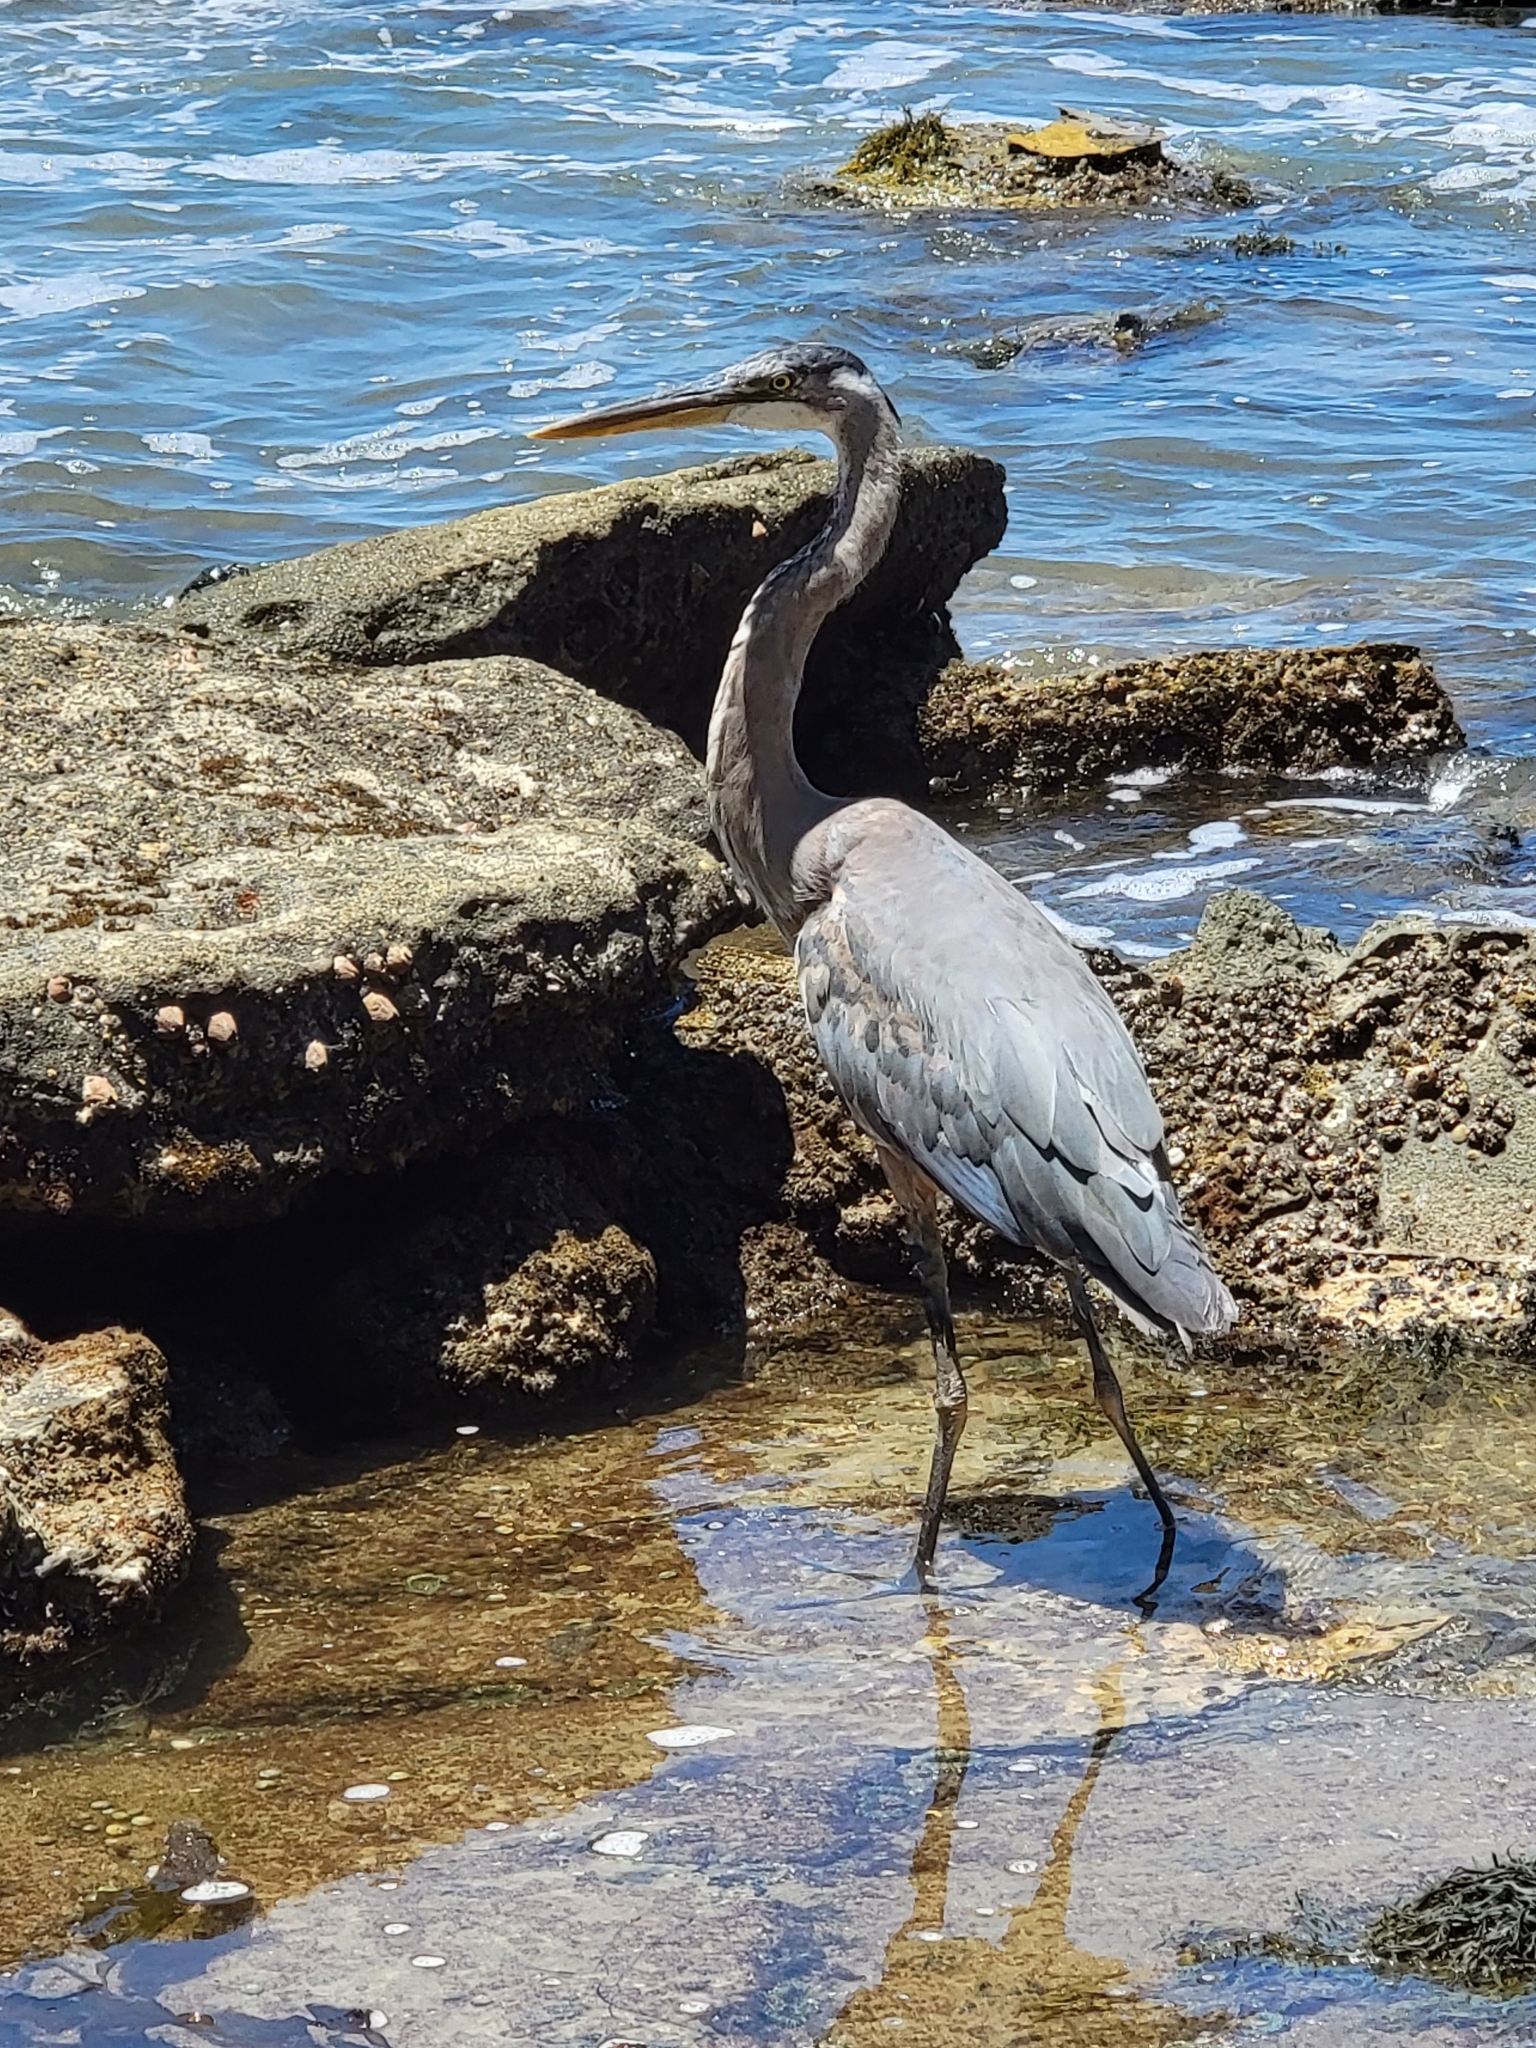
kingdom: Animalia
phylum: Chordata
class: Aves
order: Pelecaniformes
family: Ardeidae
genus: Ardea
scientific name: Ardea herodias
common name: Great blue heron
